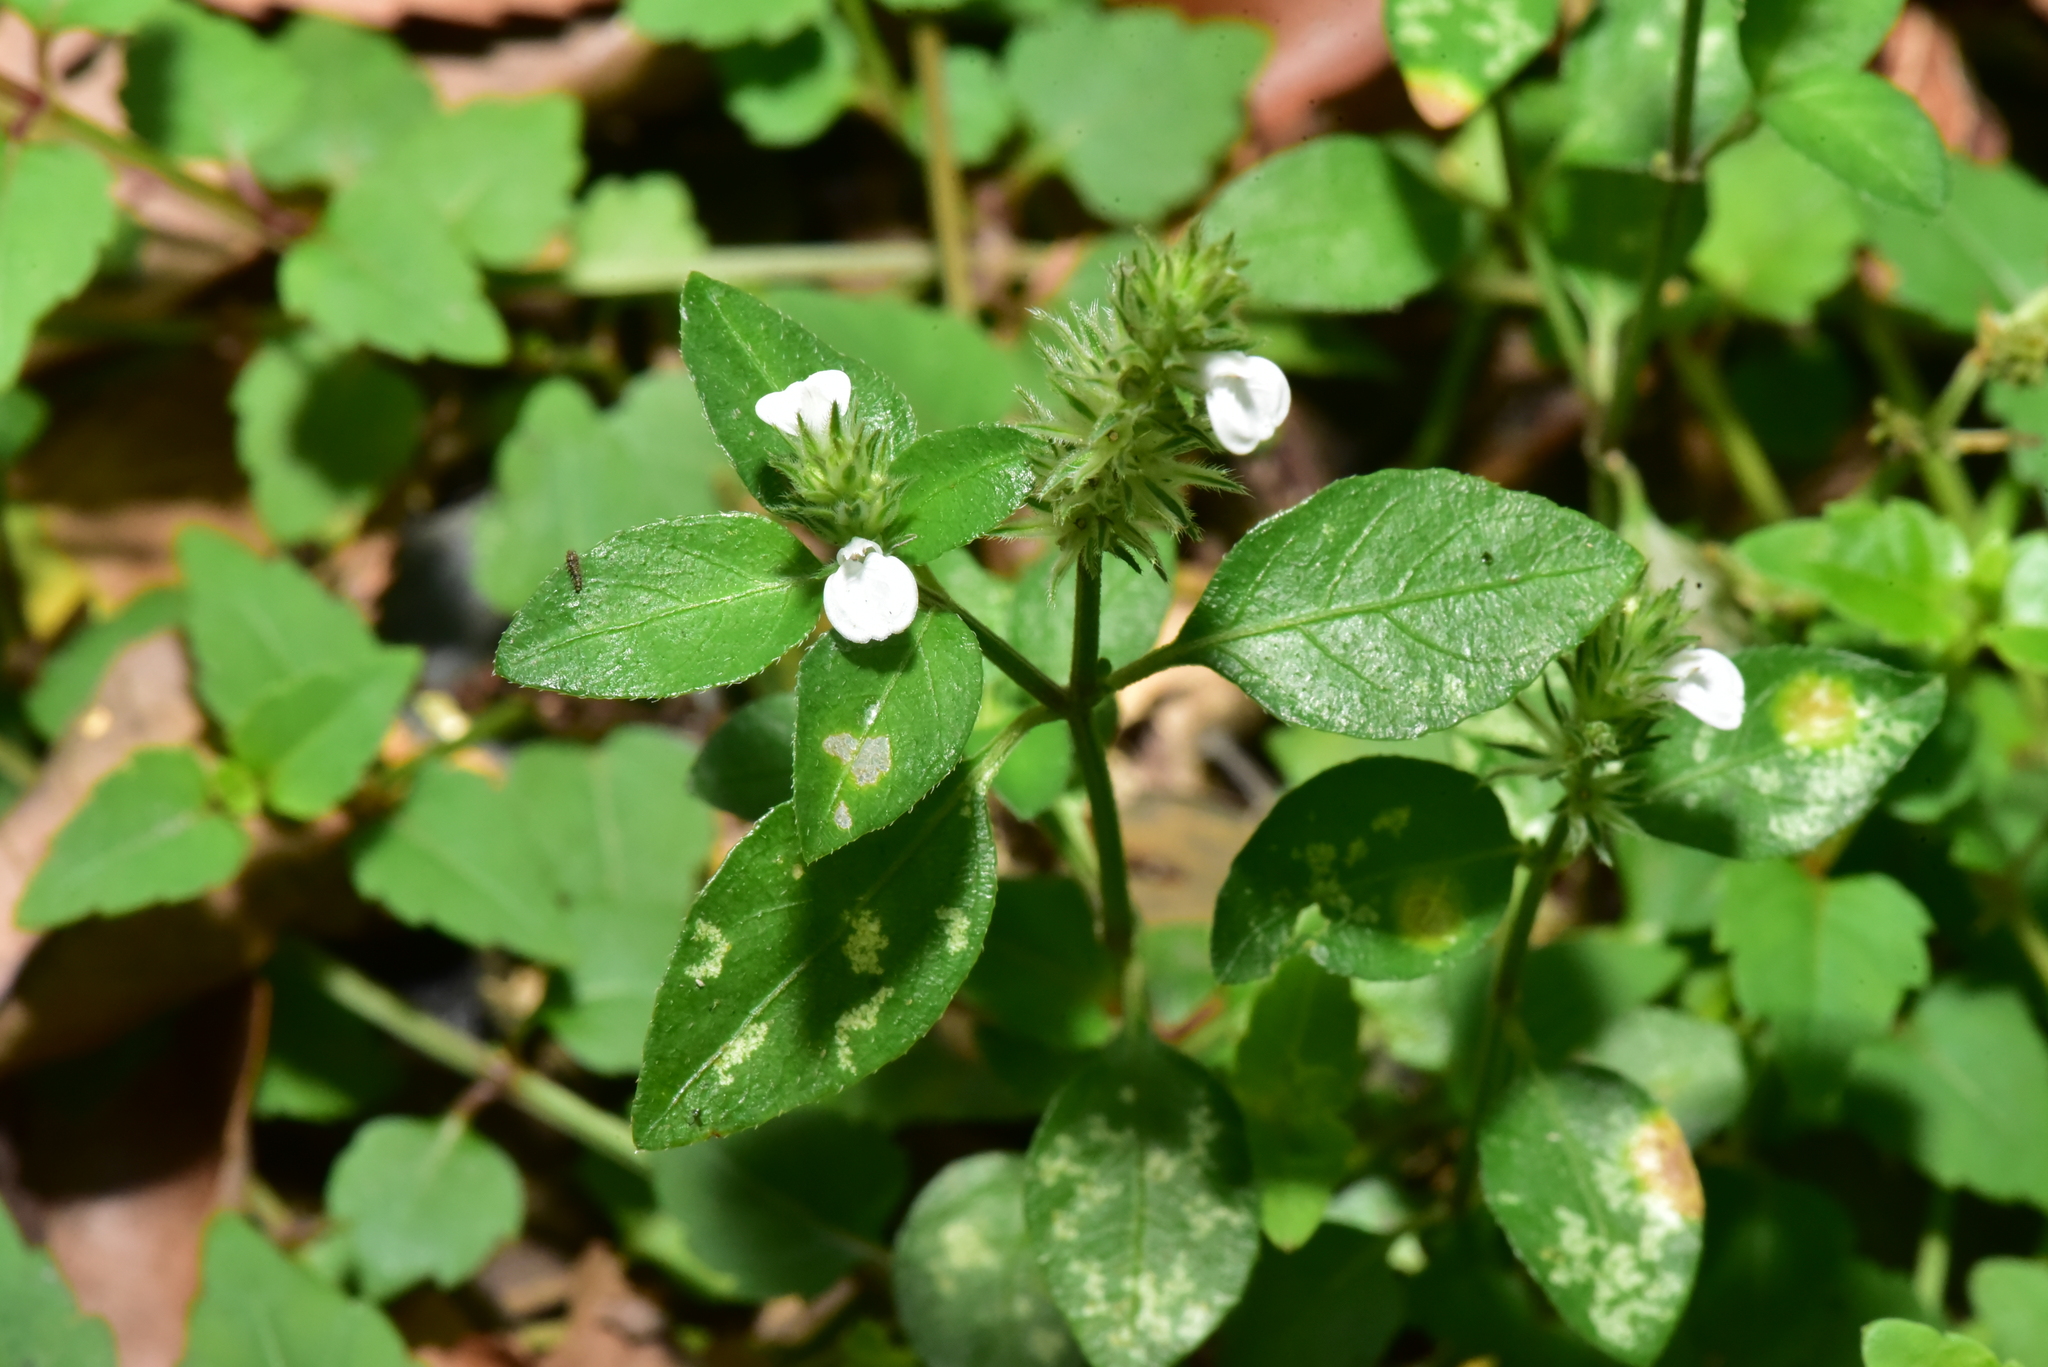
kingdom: Plantae
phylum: Tracheophyta
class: Magnoliopsida
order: Lamiales
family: Acanthaceae
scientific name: Acanthaceae
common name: Acanthaceae
